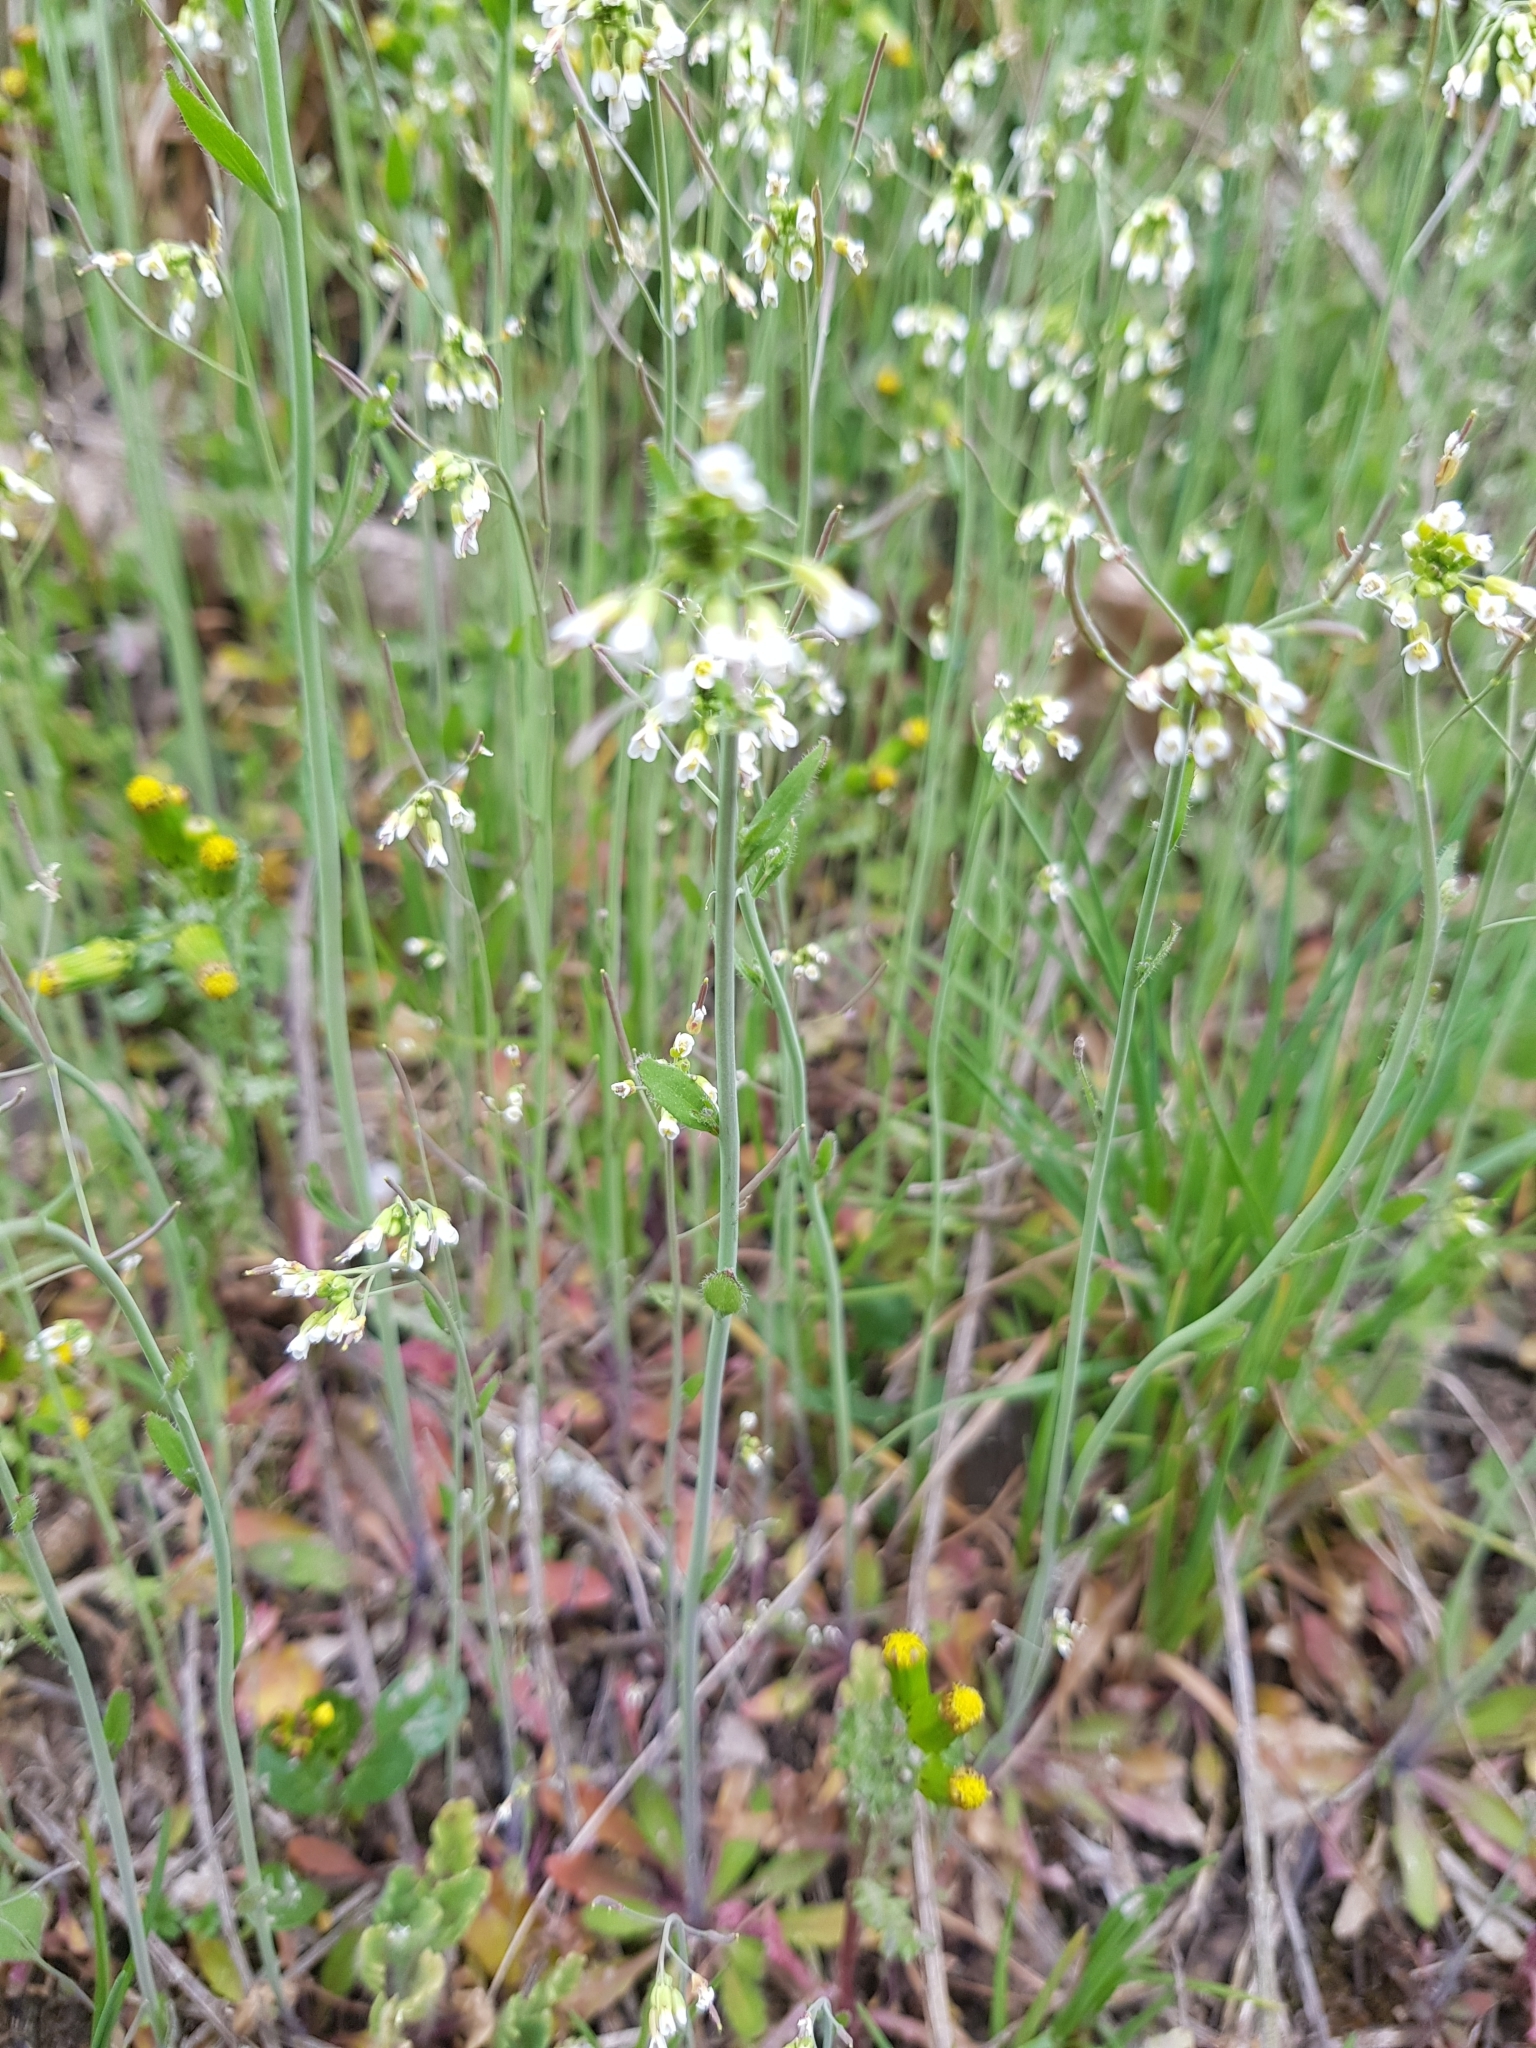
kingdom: Plantae
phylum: Tracheophyta
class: Magnoliopsida
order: Brassicales
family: Brassicaceae
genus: Arabidopsis
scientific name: Arabidopsis thaliana
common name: Thale cress
